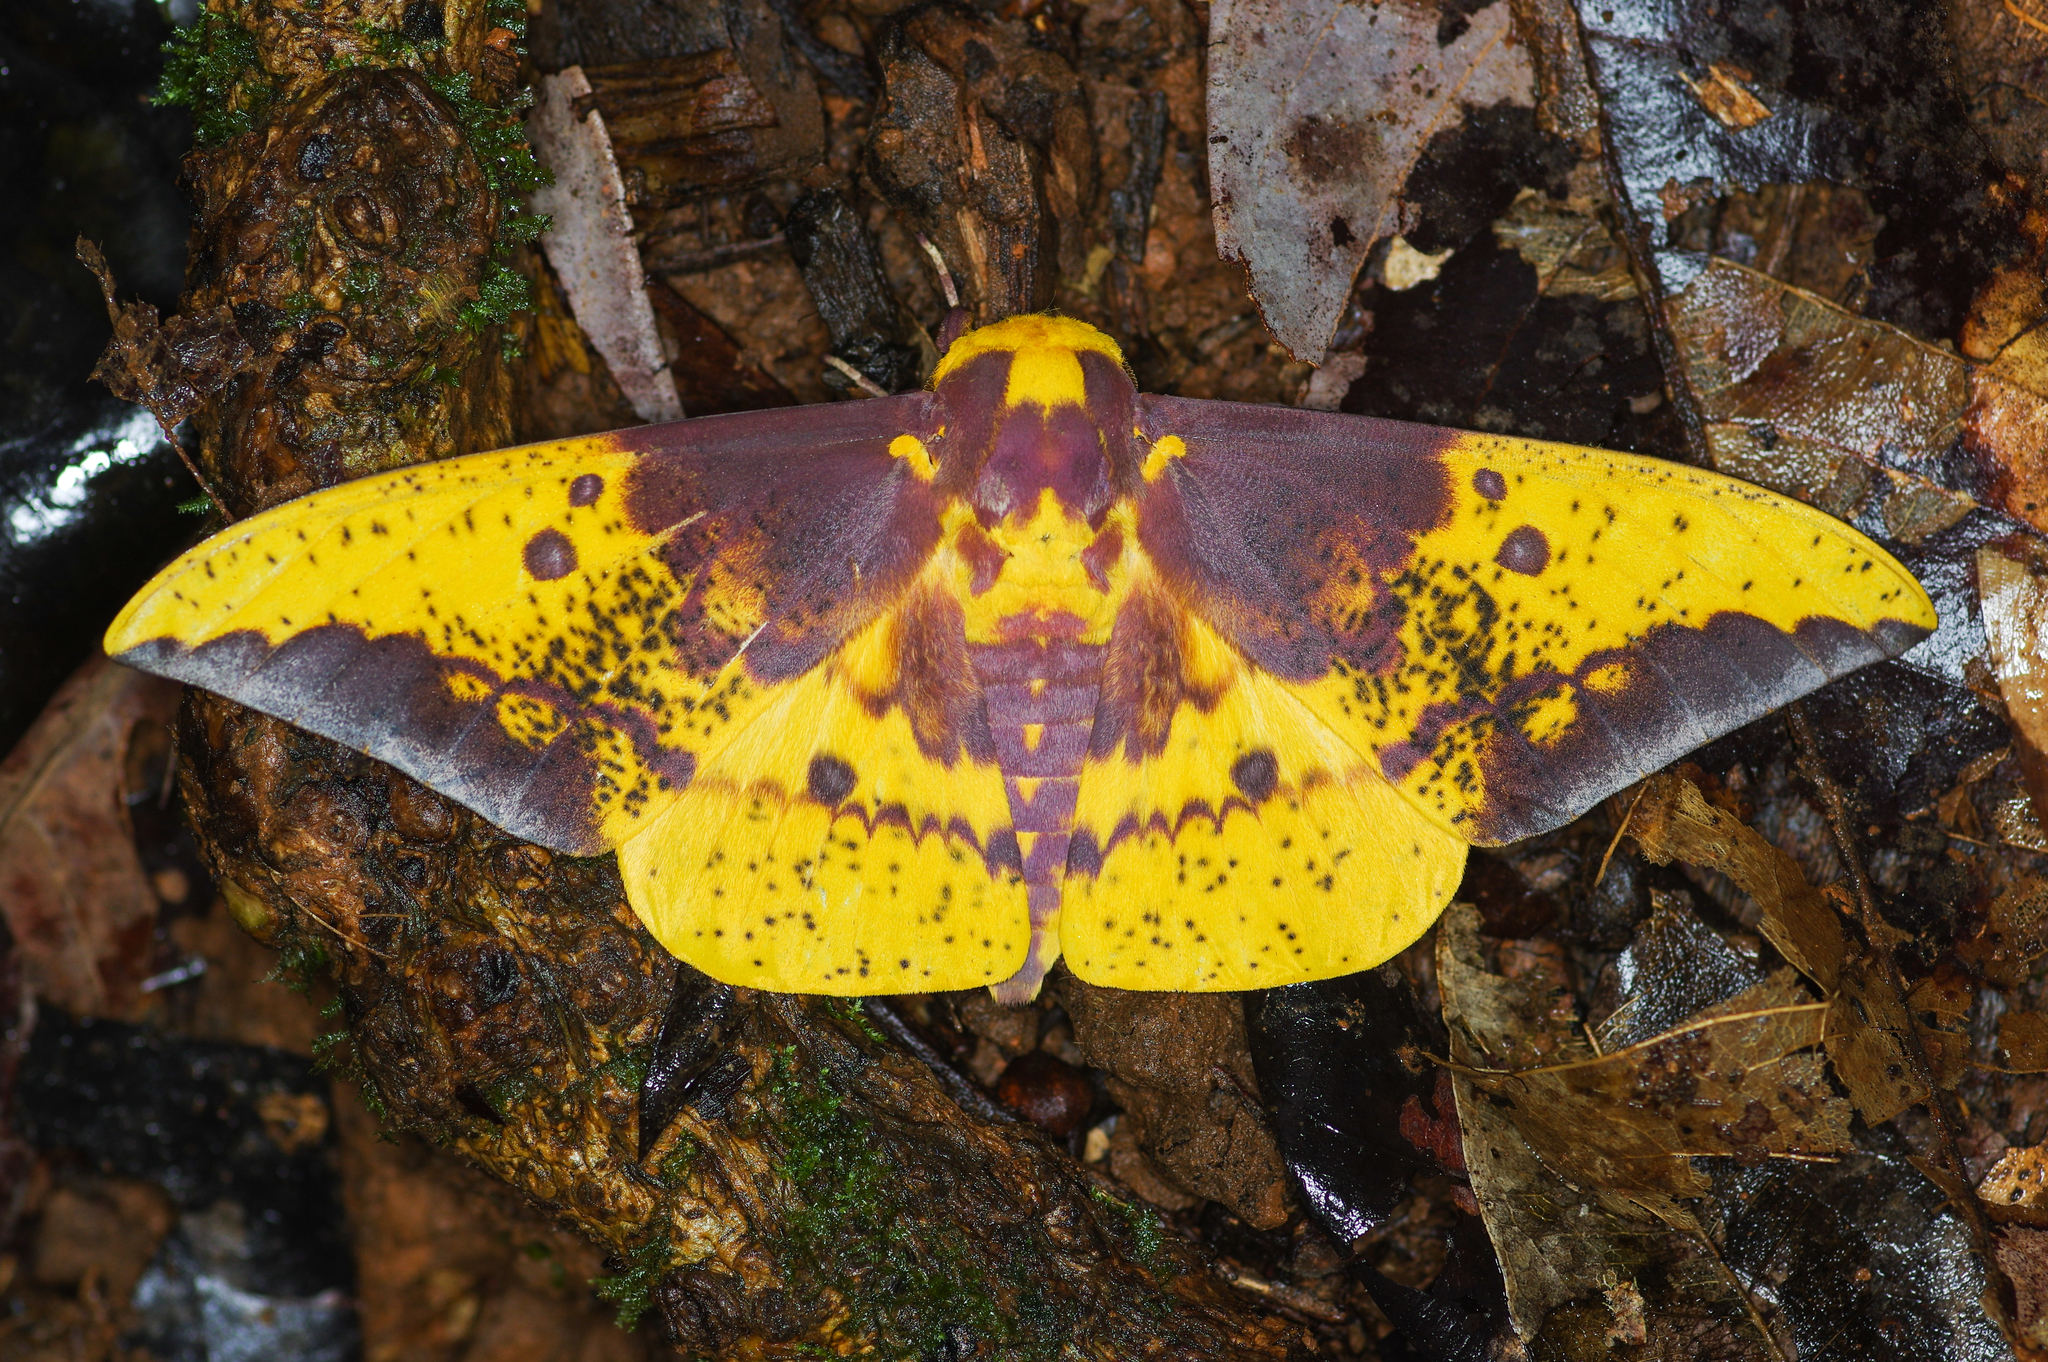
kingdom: Animalia
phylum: Arthropoda
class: Insecta
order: Lepidoptera
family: Saturniidae
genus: Eacles
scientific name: Eacles imperialis
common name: Imperial moth
